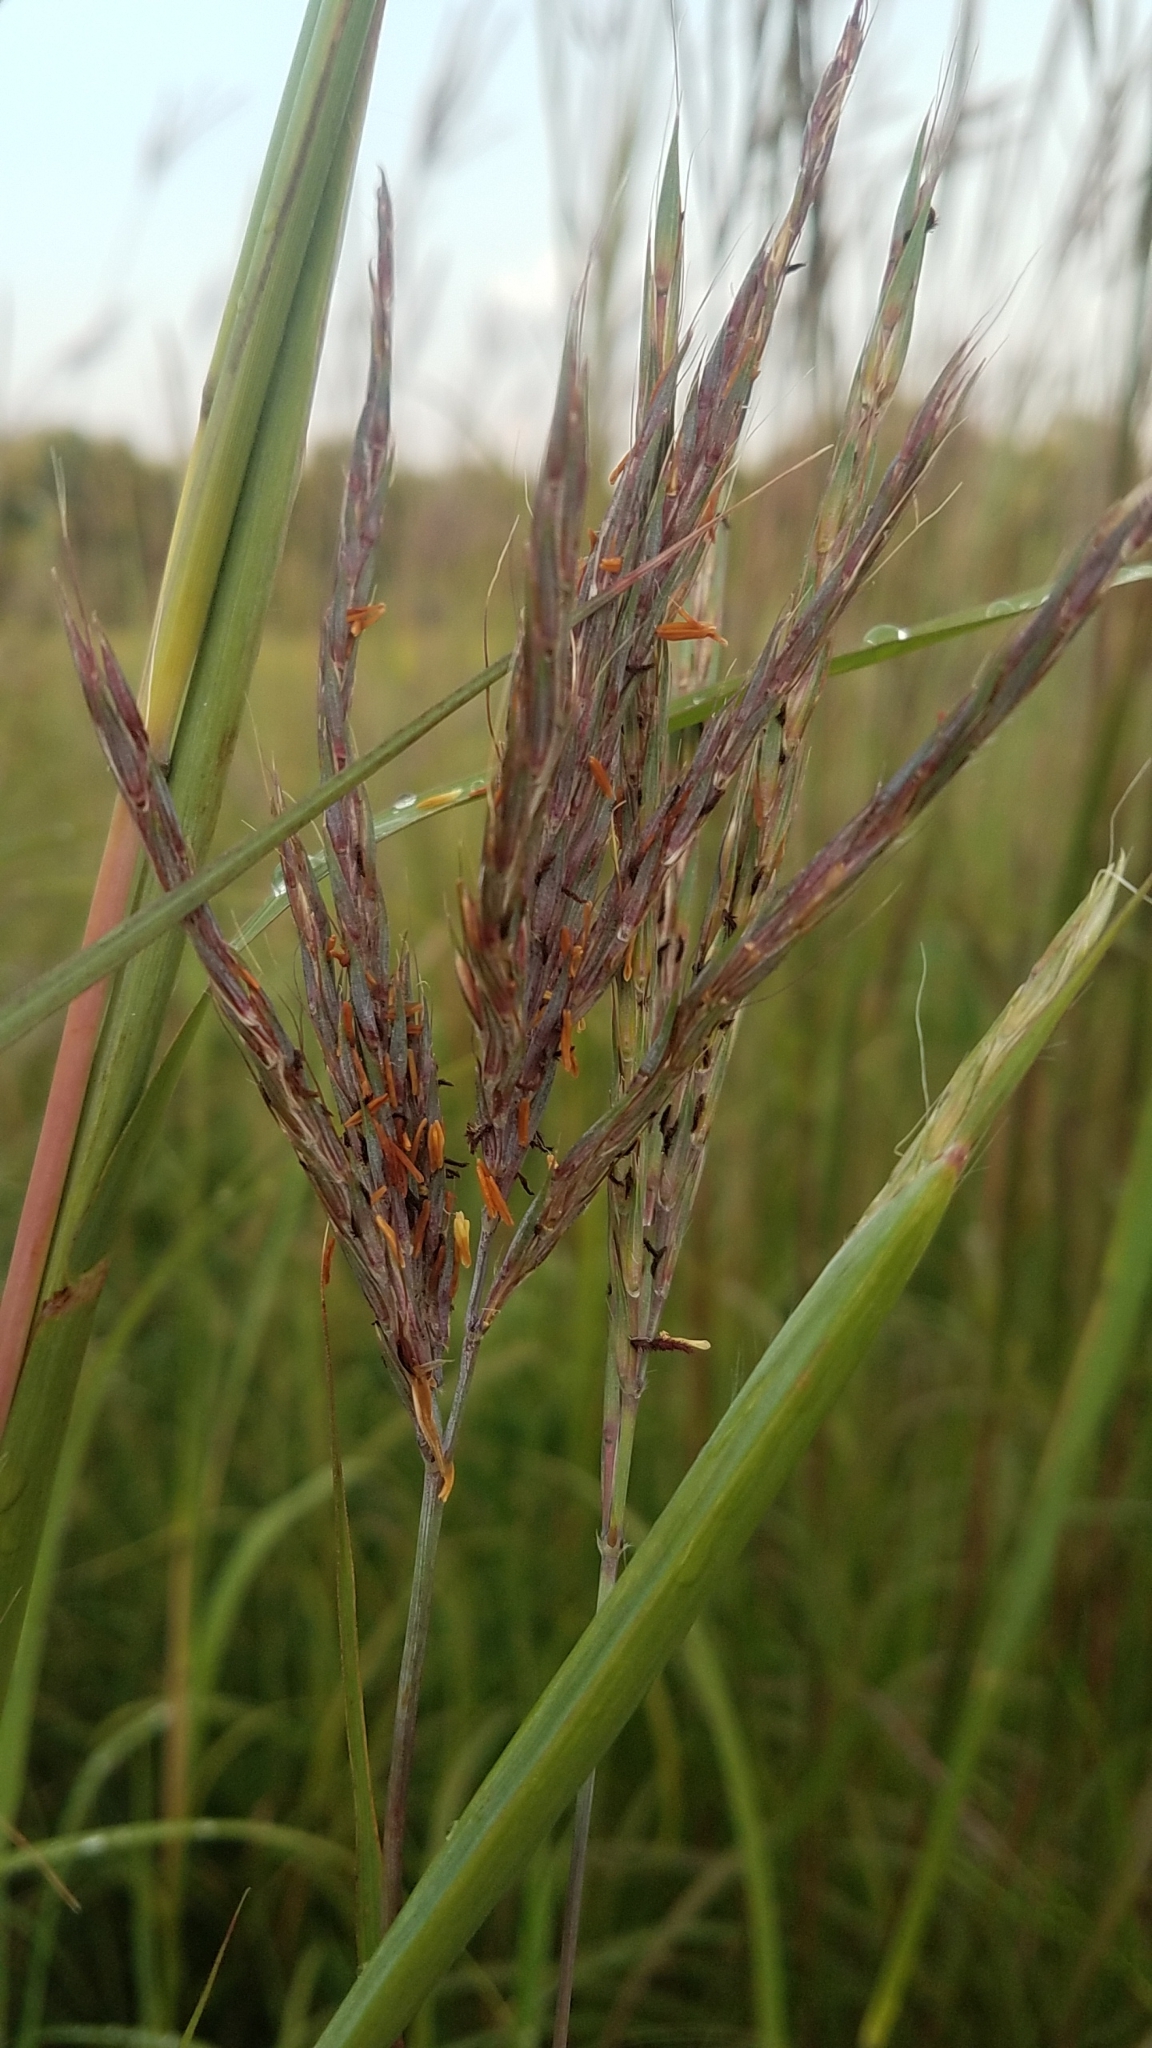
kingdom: Plantae
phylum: Tracheophyta
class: Liliopsida
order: Poales
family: Poaceae
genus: Andropogon
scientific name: Andropogon gerardi
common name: Big bluestem
